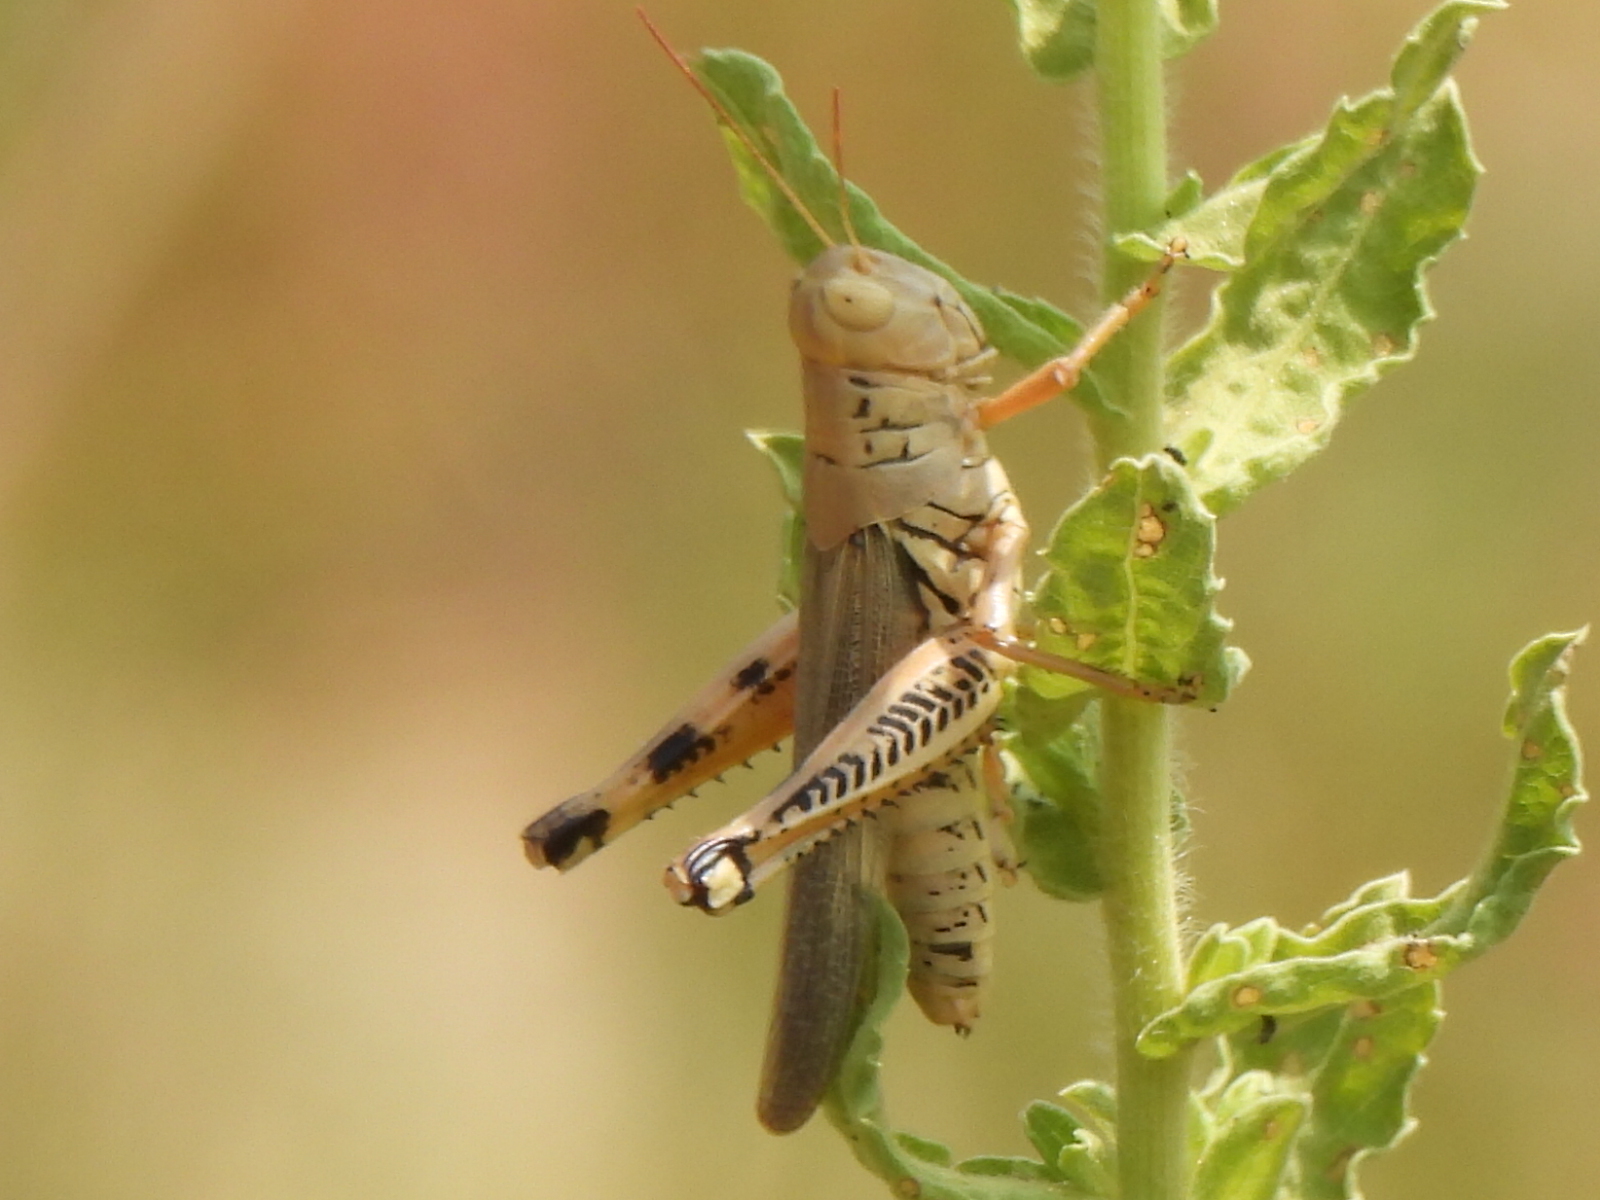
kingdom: Animalia
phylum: Arthropoda
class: Insecta
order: Orthoptera
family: Acrididae
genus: Melanoplus
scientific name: Melanoplus differentialis
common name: Differential grasshopper
